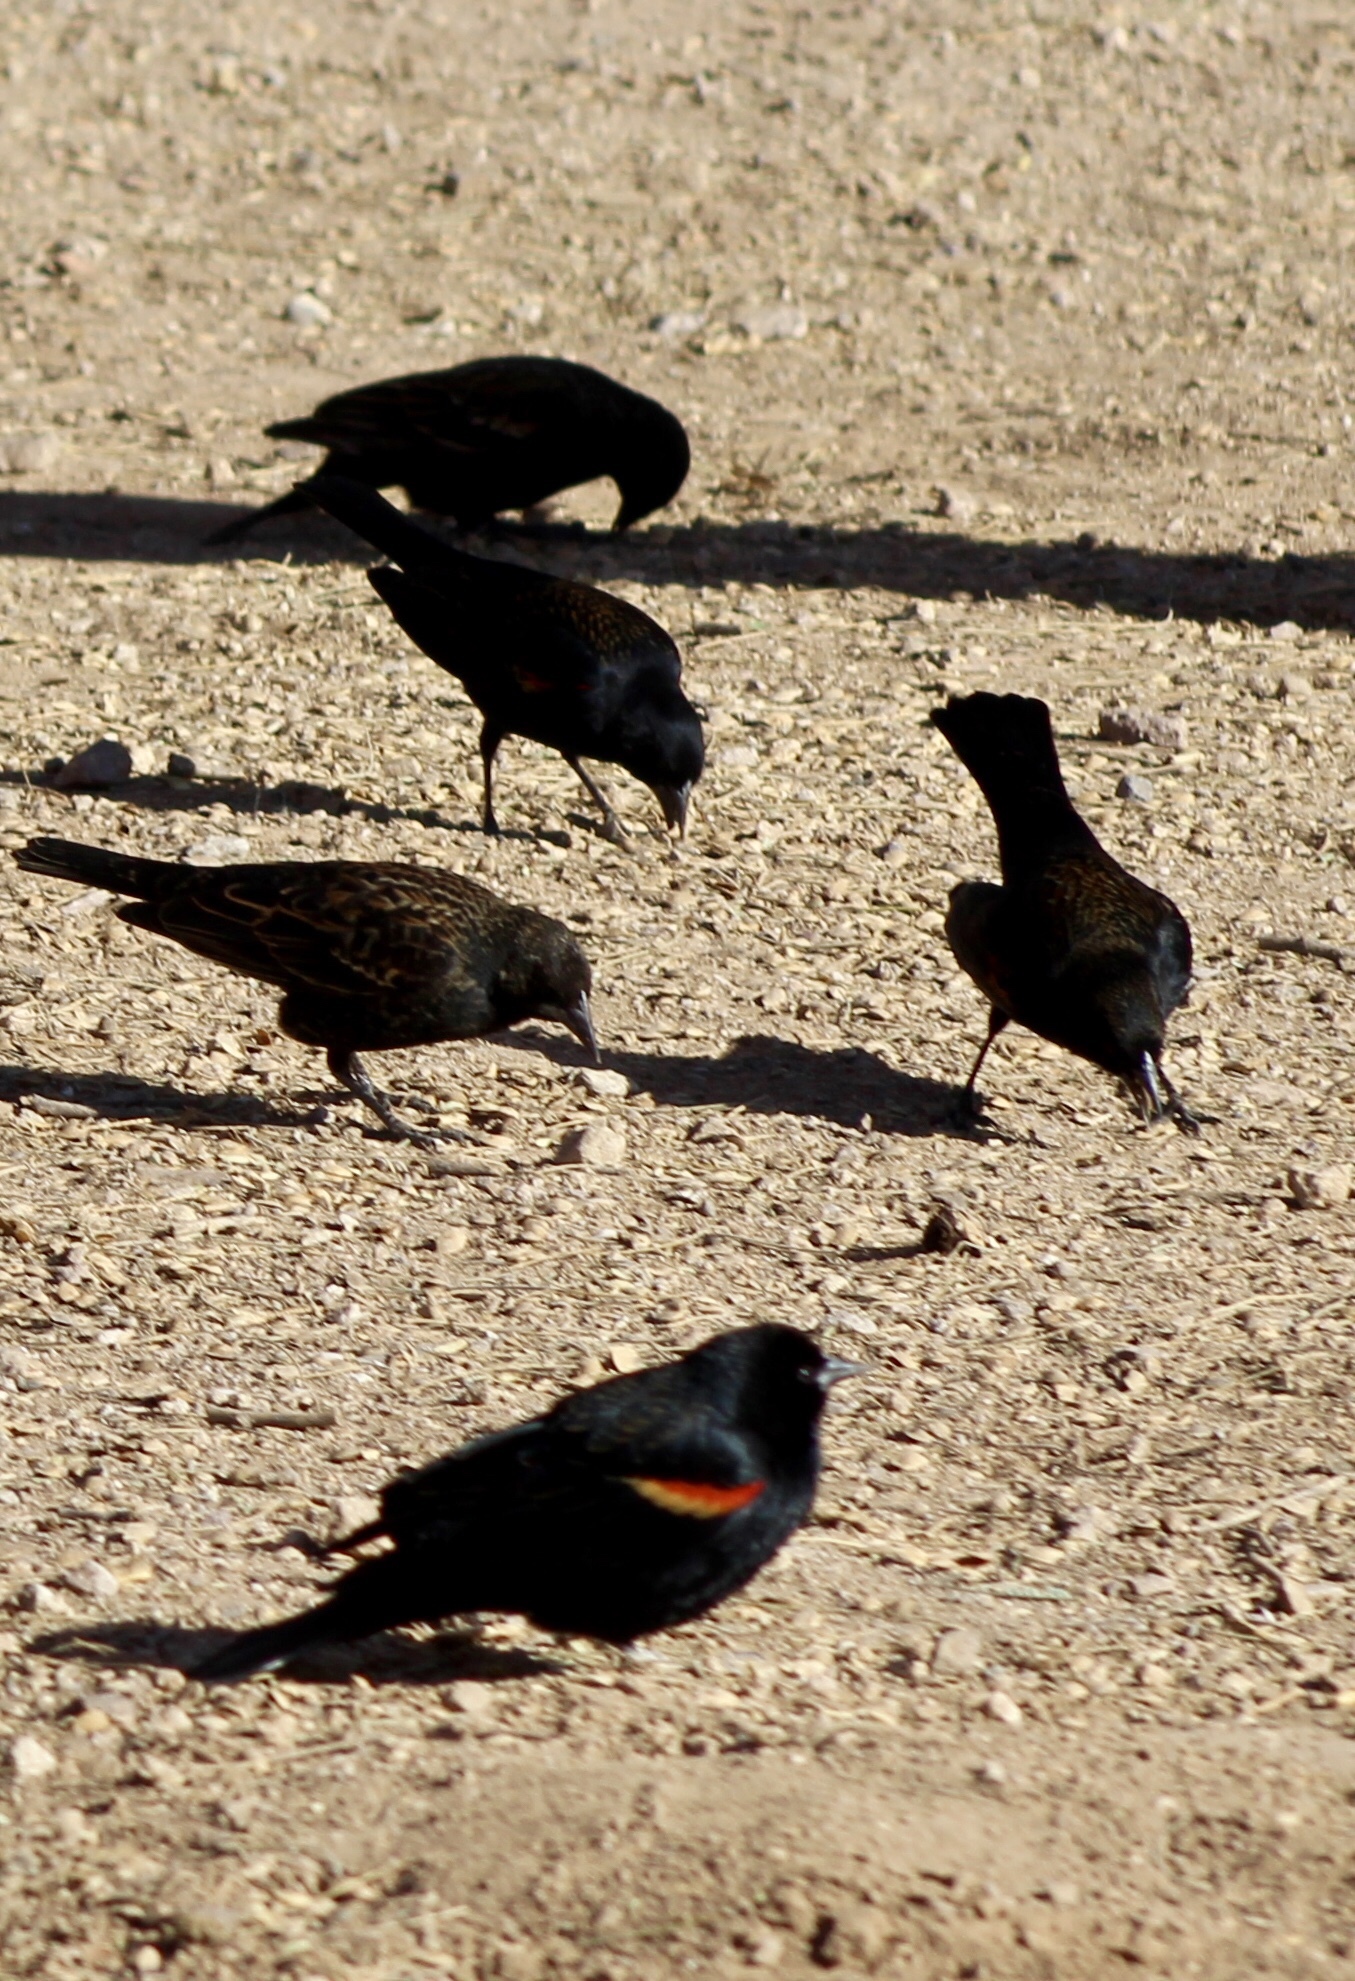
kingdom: Animalia
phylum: Chordata
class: Aves
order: Passeriformes
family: Icteridae
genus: Agelaius
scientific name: Agelaius phoeniceus
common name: Red-winged blackbird
